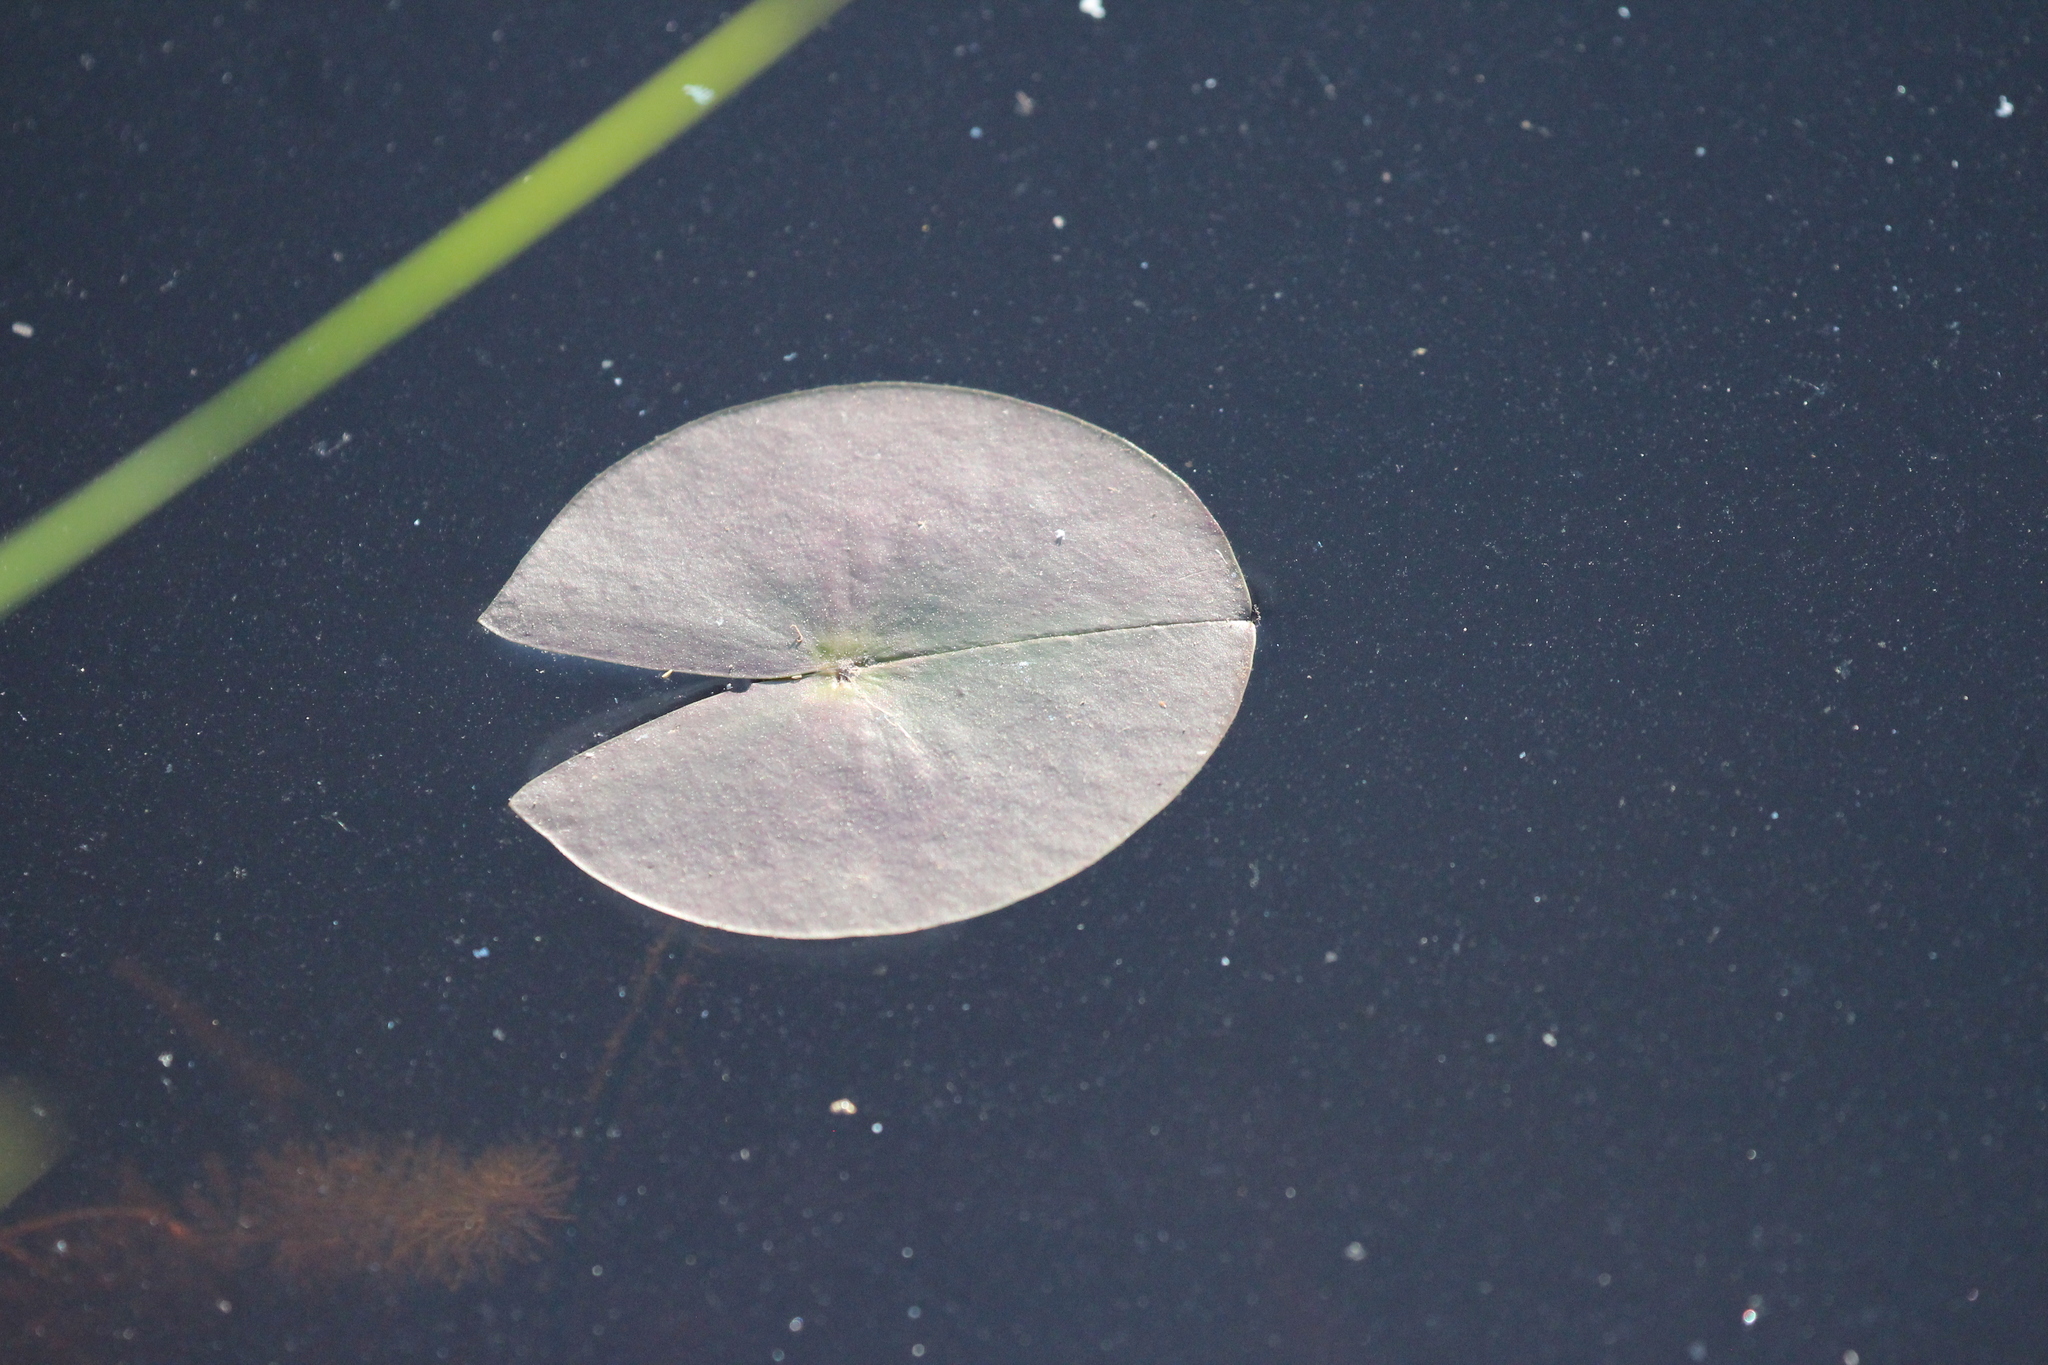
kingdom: Plantae
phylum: Tracheophyta
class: Magnoliopsida
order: Nymphaeales
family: Nymphaeaceae
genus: Nymphaea
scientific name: Nymphaea odorata
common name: Fragrant water-lily
